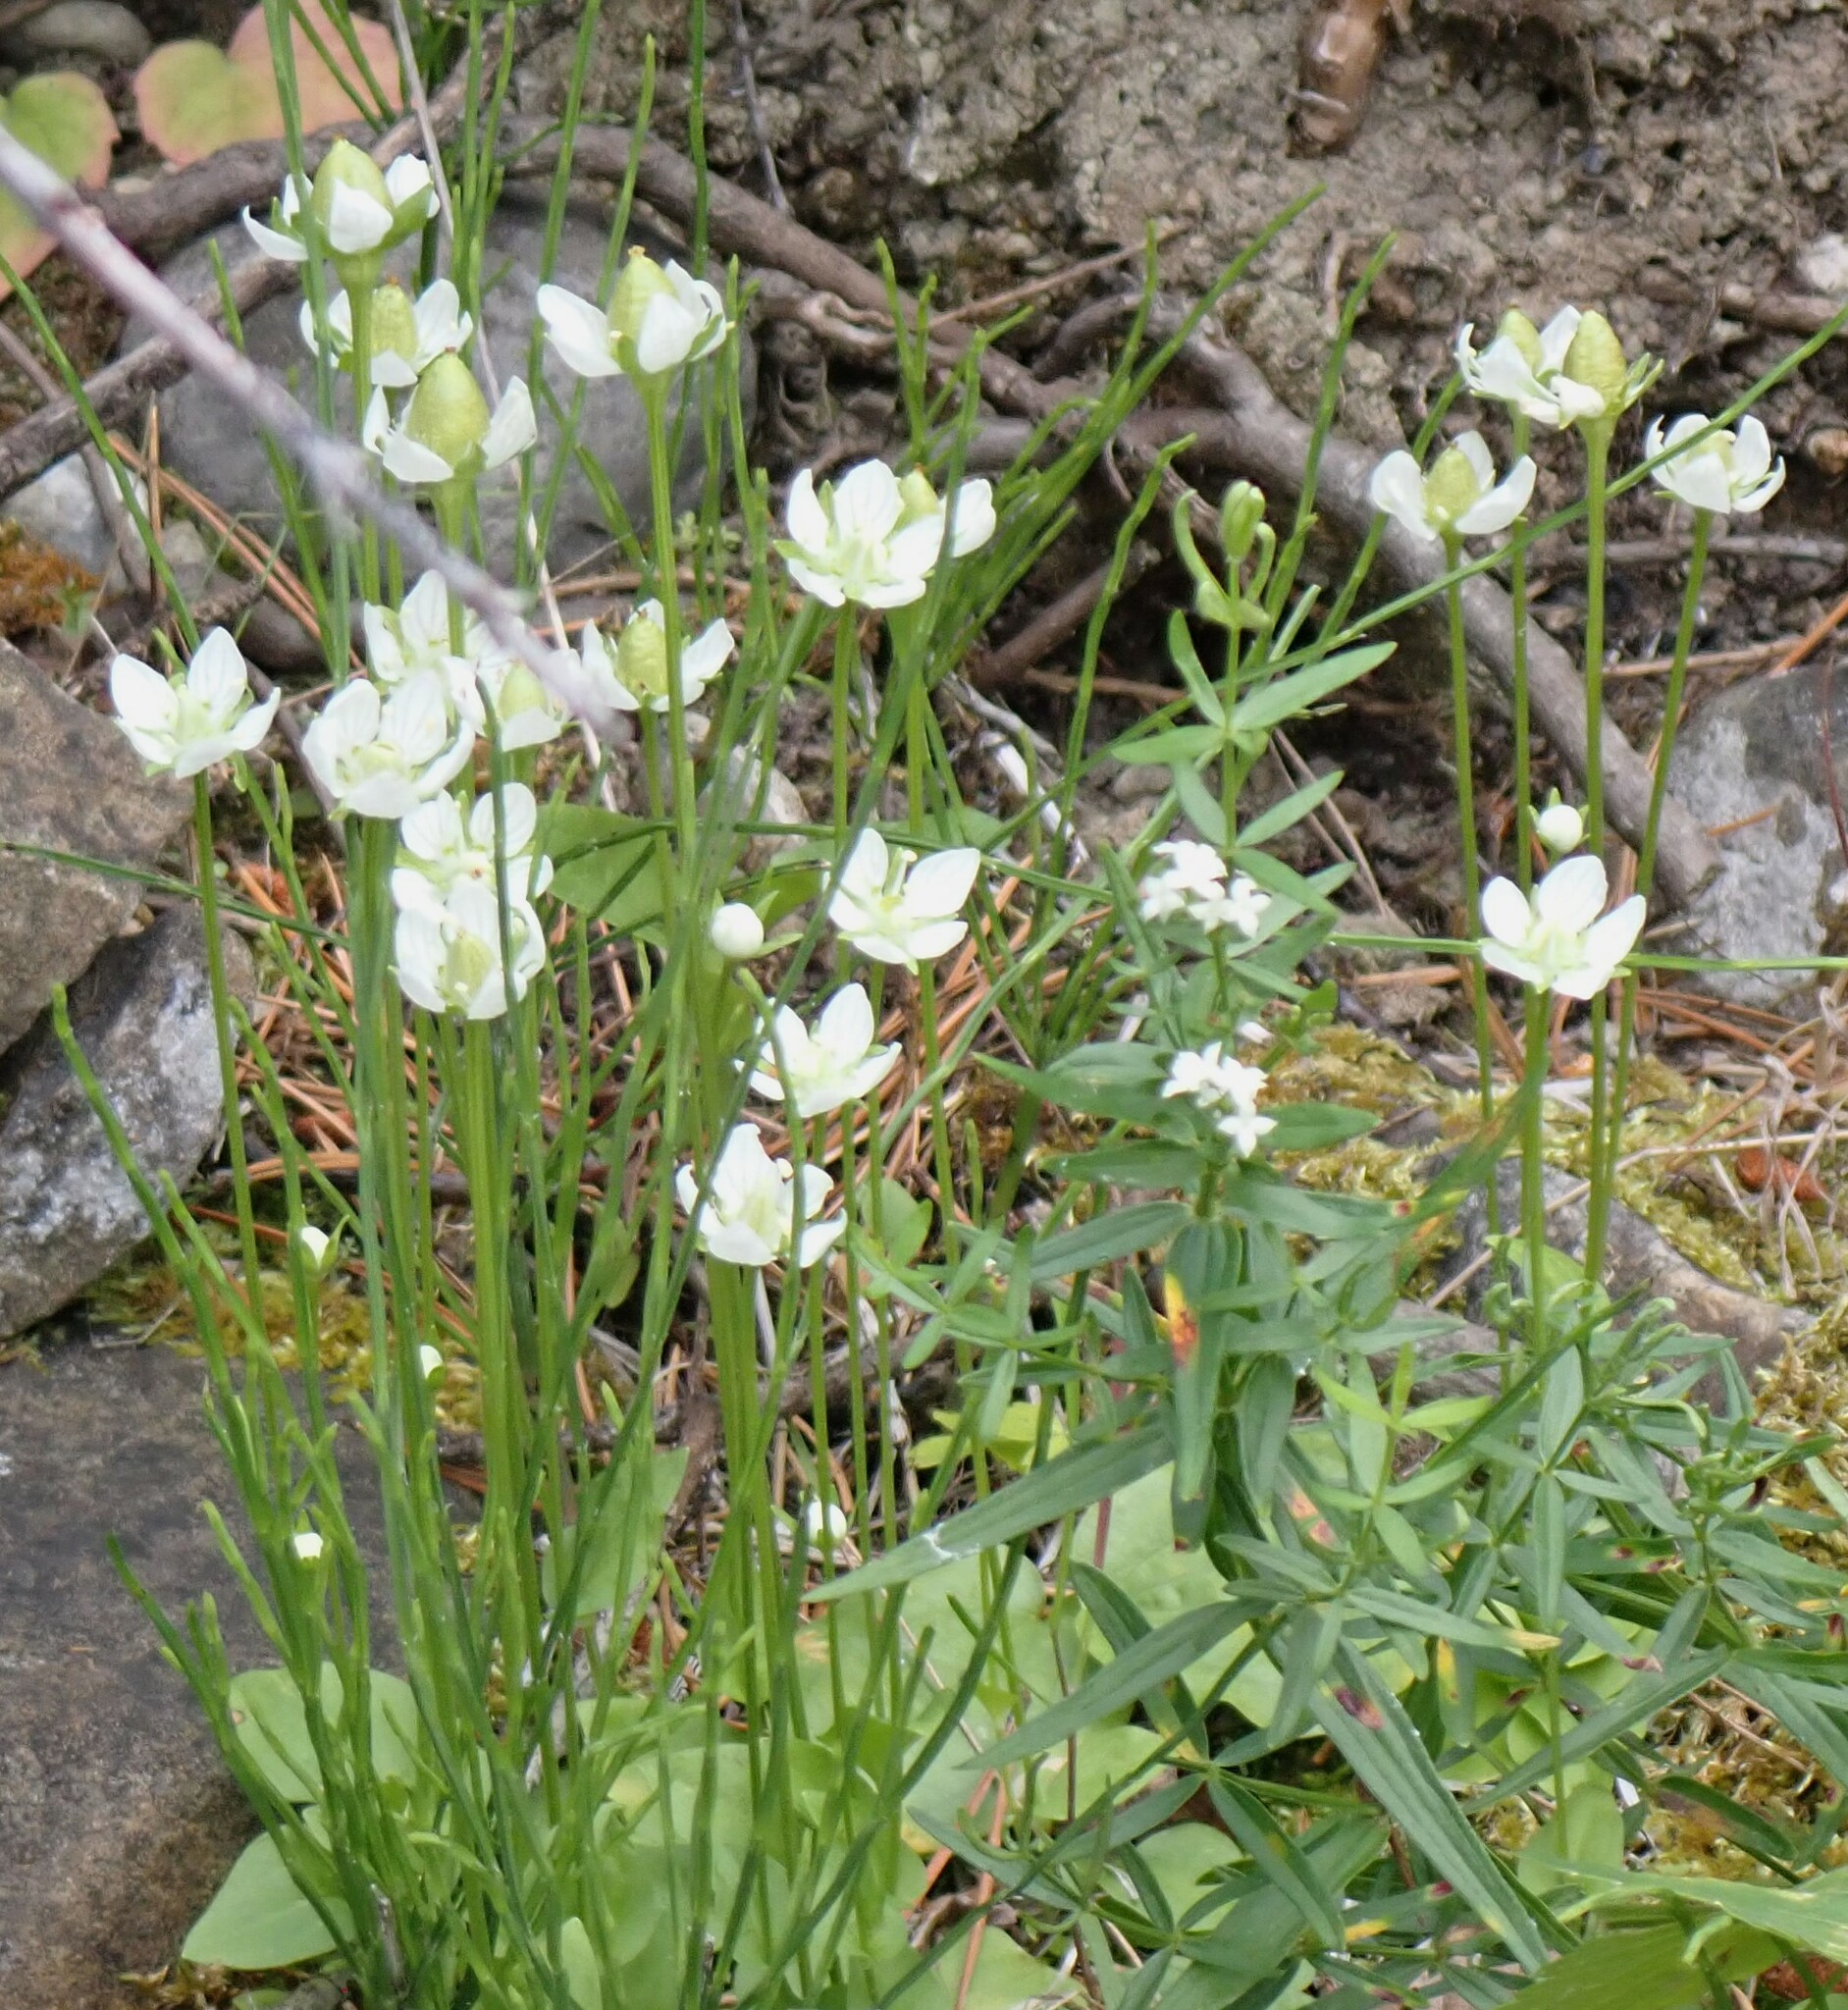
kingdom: Plantae
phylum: Tracheophyta
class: Magnoliopsida
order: Celastrales
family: Parnassiaceae
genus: Parnassia
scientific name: Parnassia palustris
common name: Grass-of-parnassus
